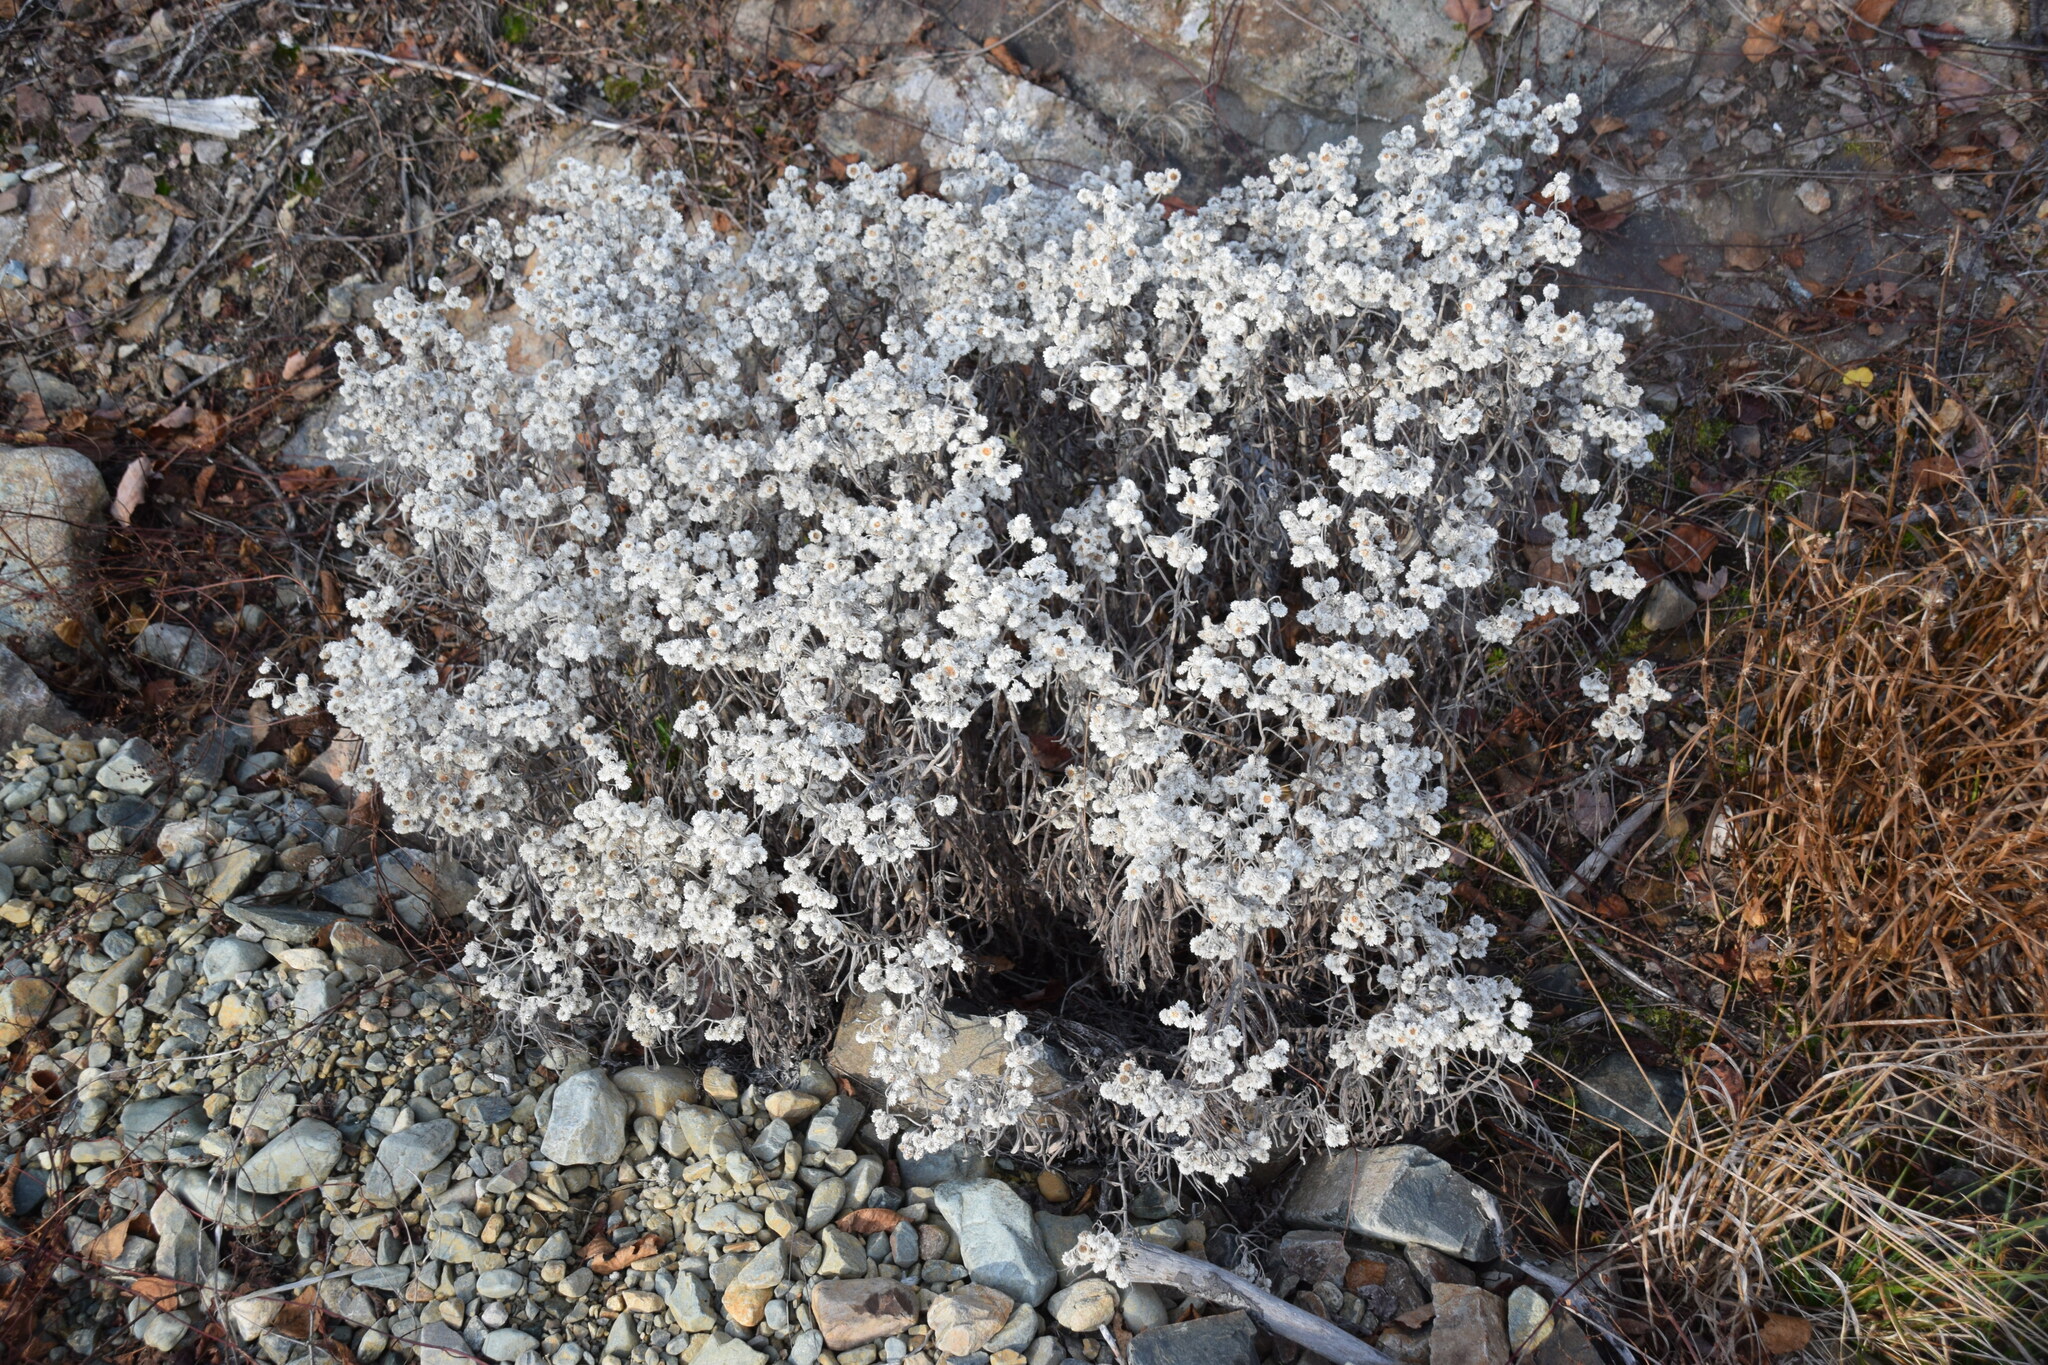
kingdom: Plantae
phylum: Tracheophyta
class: Magnoliopsida
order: Asterales
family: Asteraceae
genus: Anaphalis
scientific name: Anaphalis margaritacea
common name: Pearly everlasting
